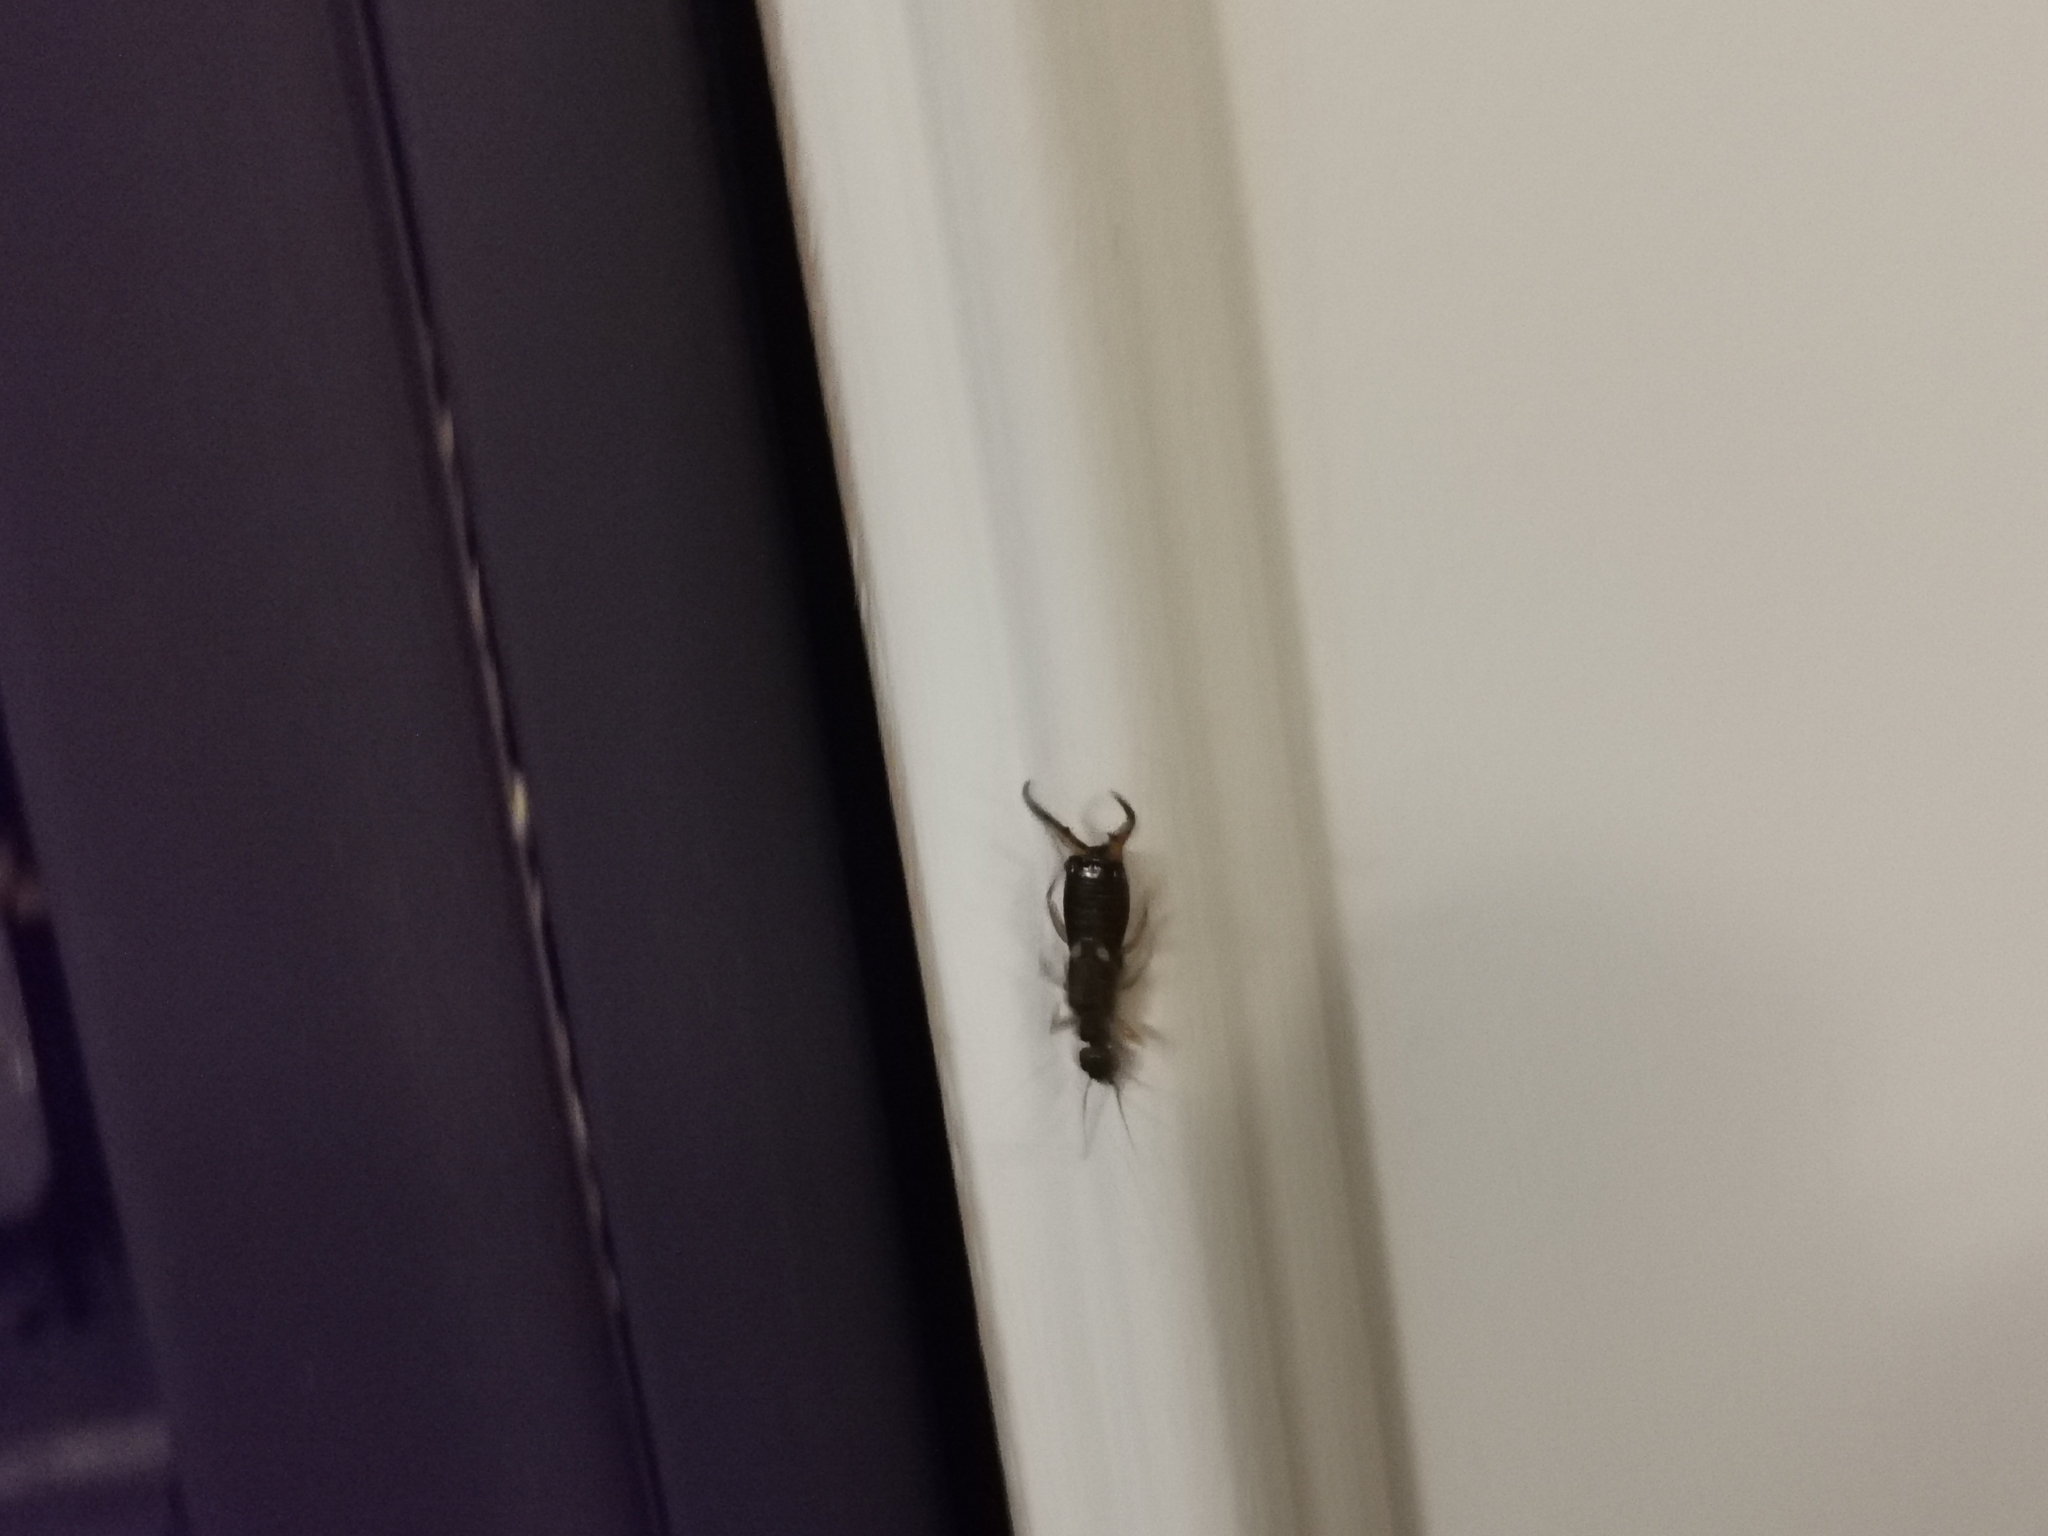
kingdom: Animalia
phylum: Arthropoda
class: Insecta
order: Dermaptera
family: Forficulidae
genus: Forficula
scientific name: Forficula
